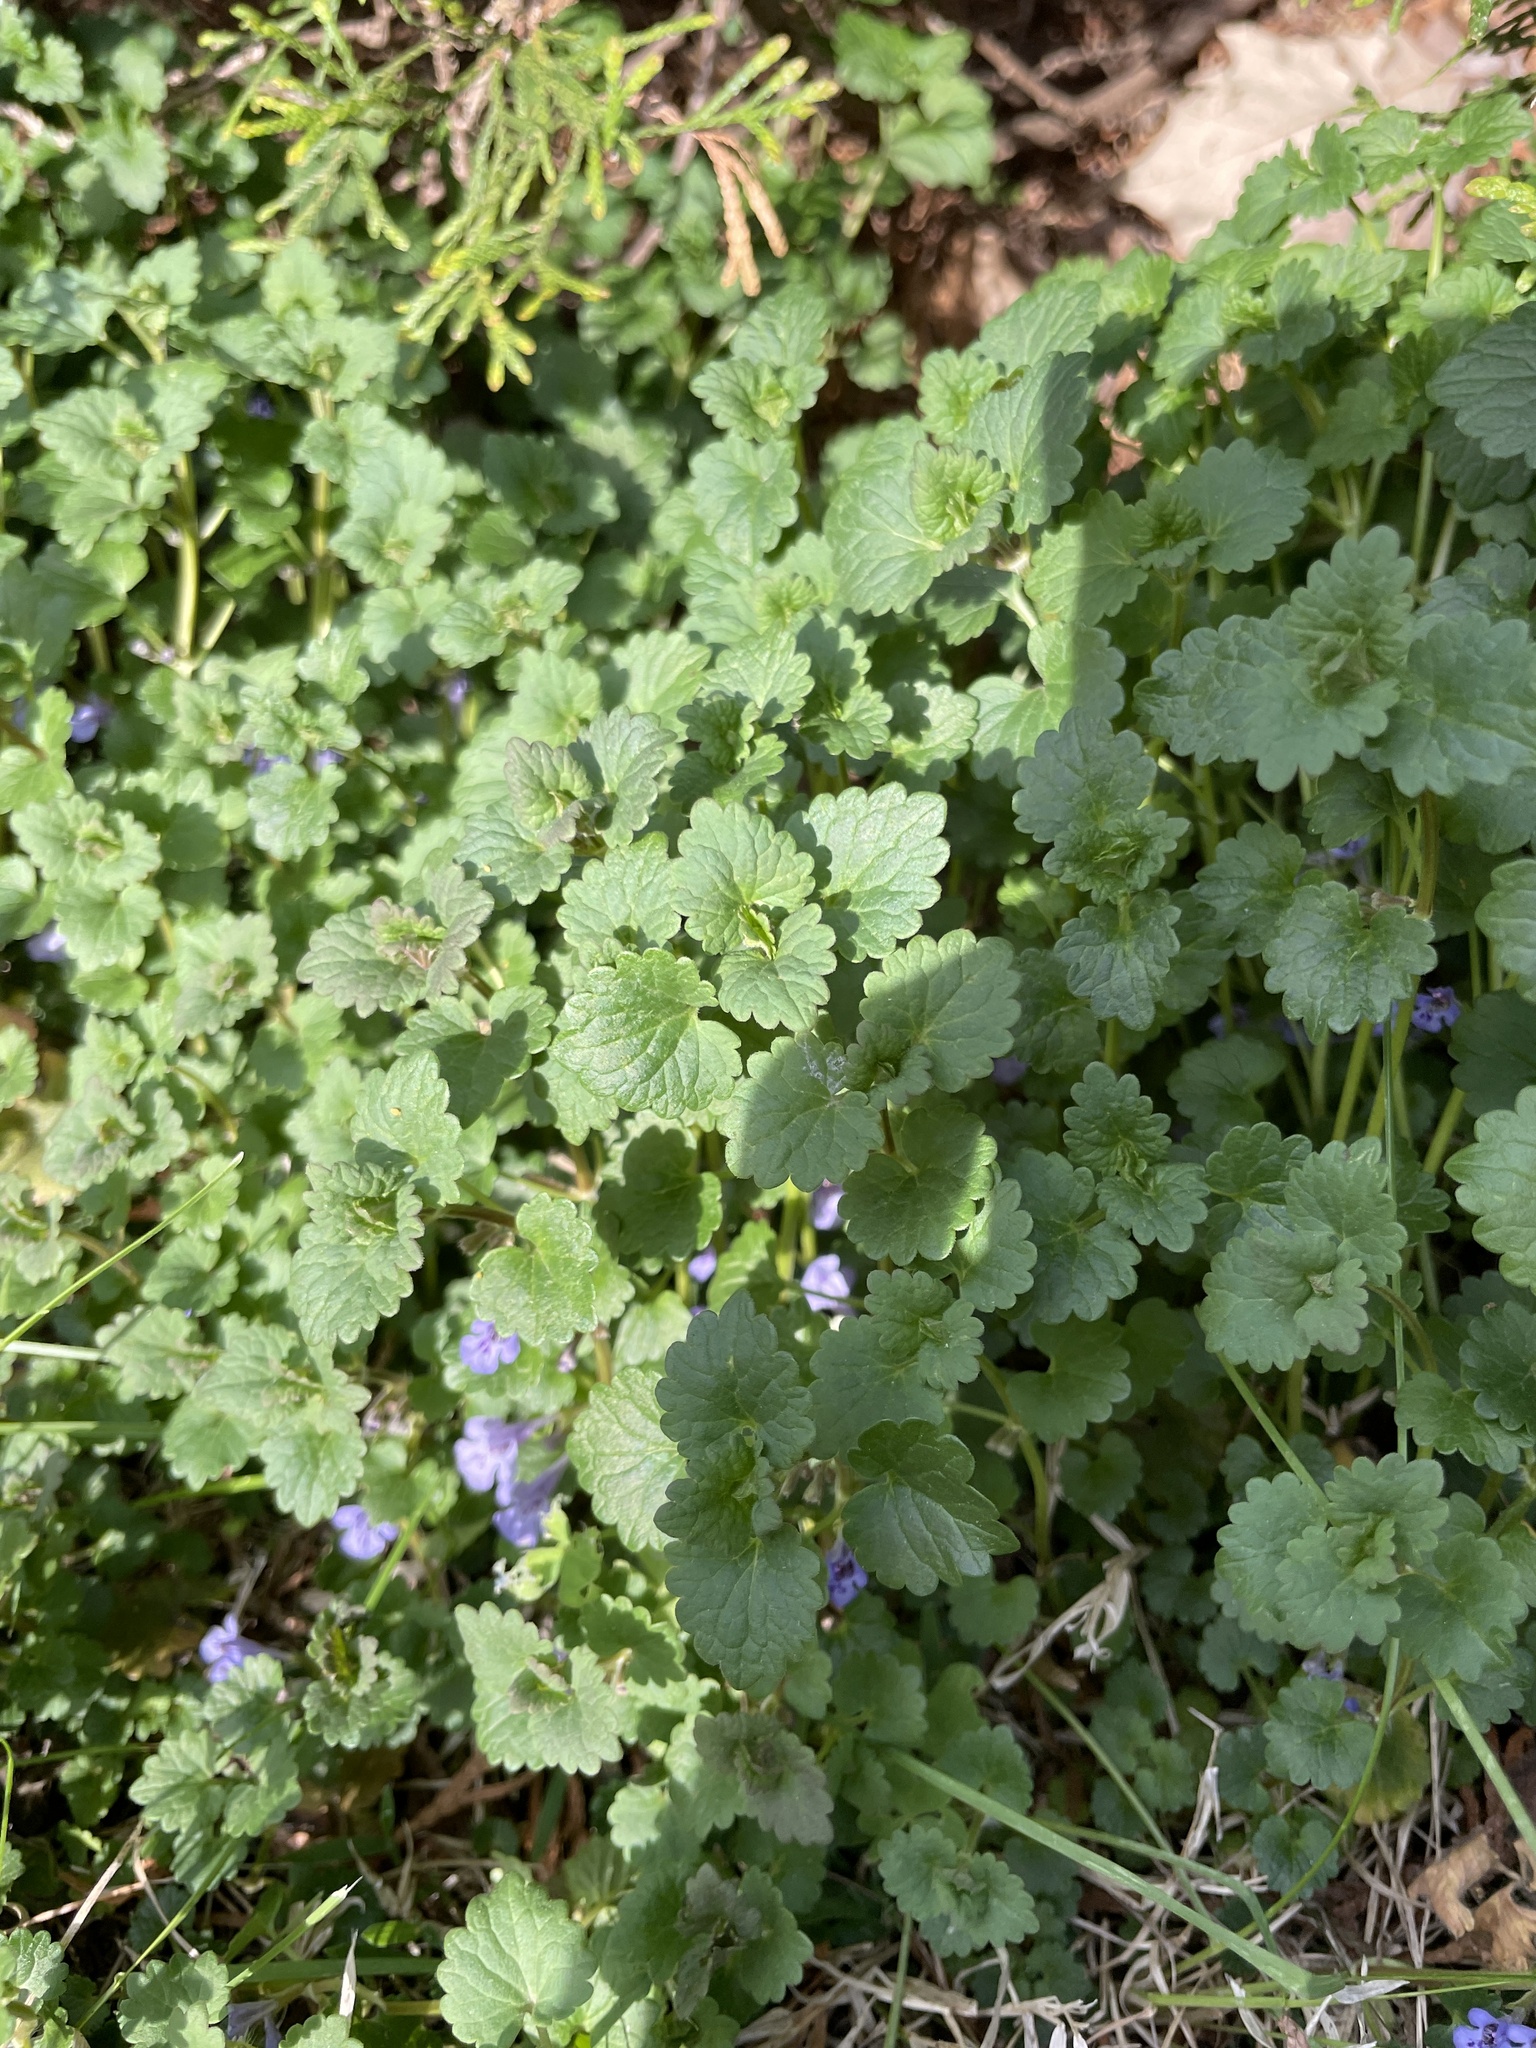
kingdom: Plantae
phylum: Tracheophyta
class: Magnoliopsida
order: Lamiales
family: Lamiaceae
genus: Glechoma
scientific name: Glechoma hederacea
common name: Ground ivy
